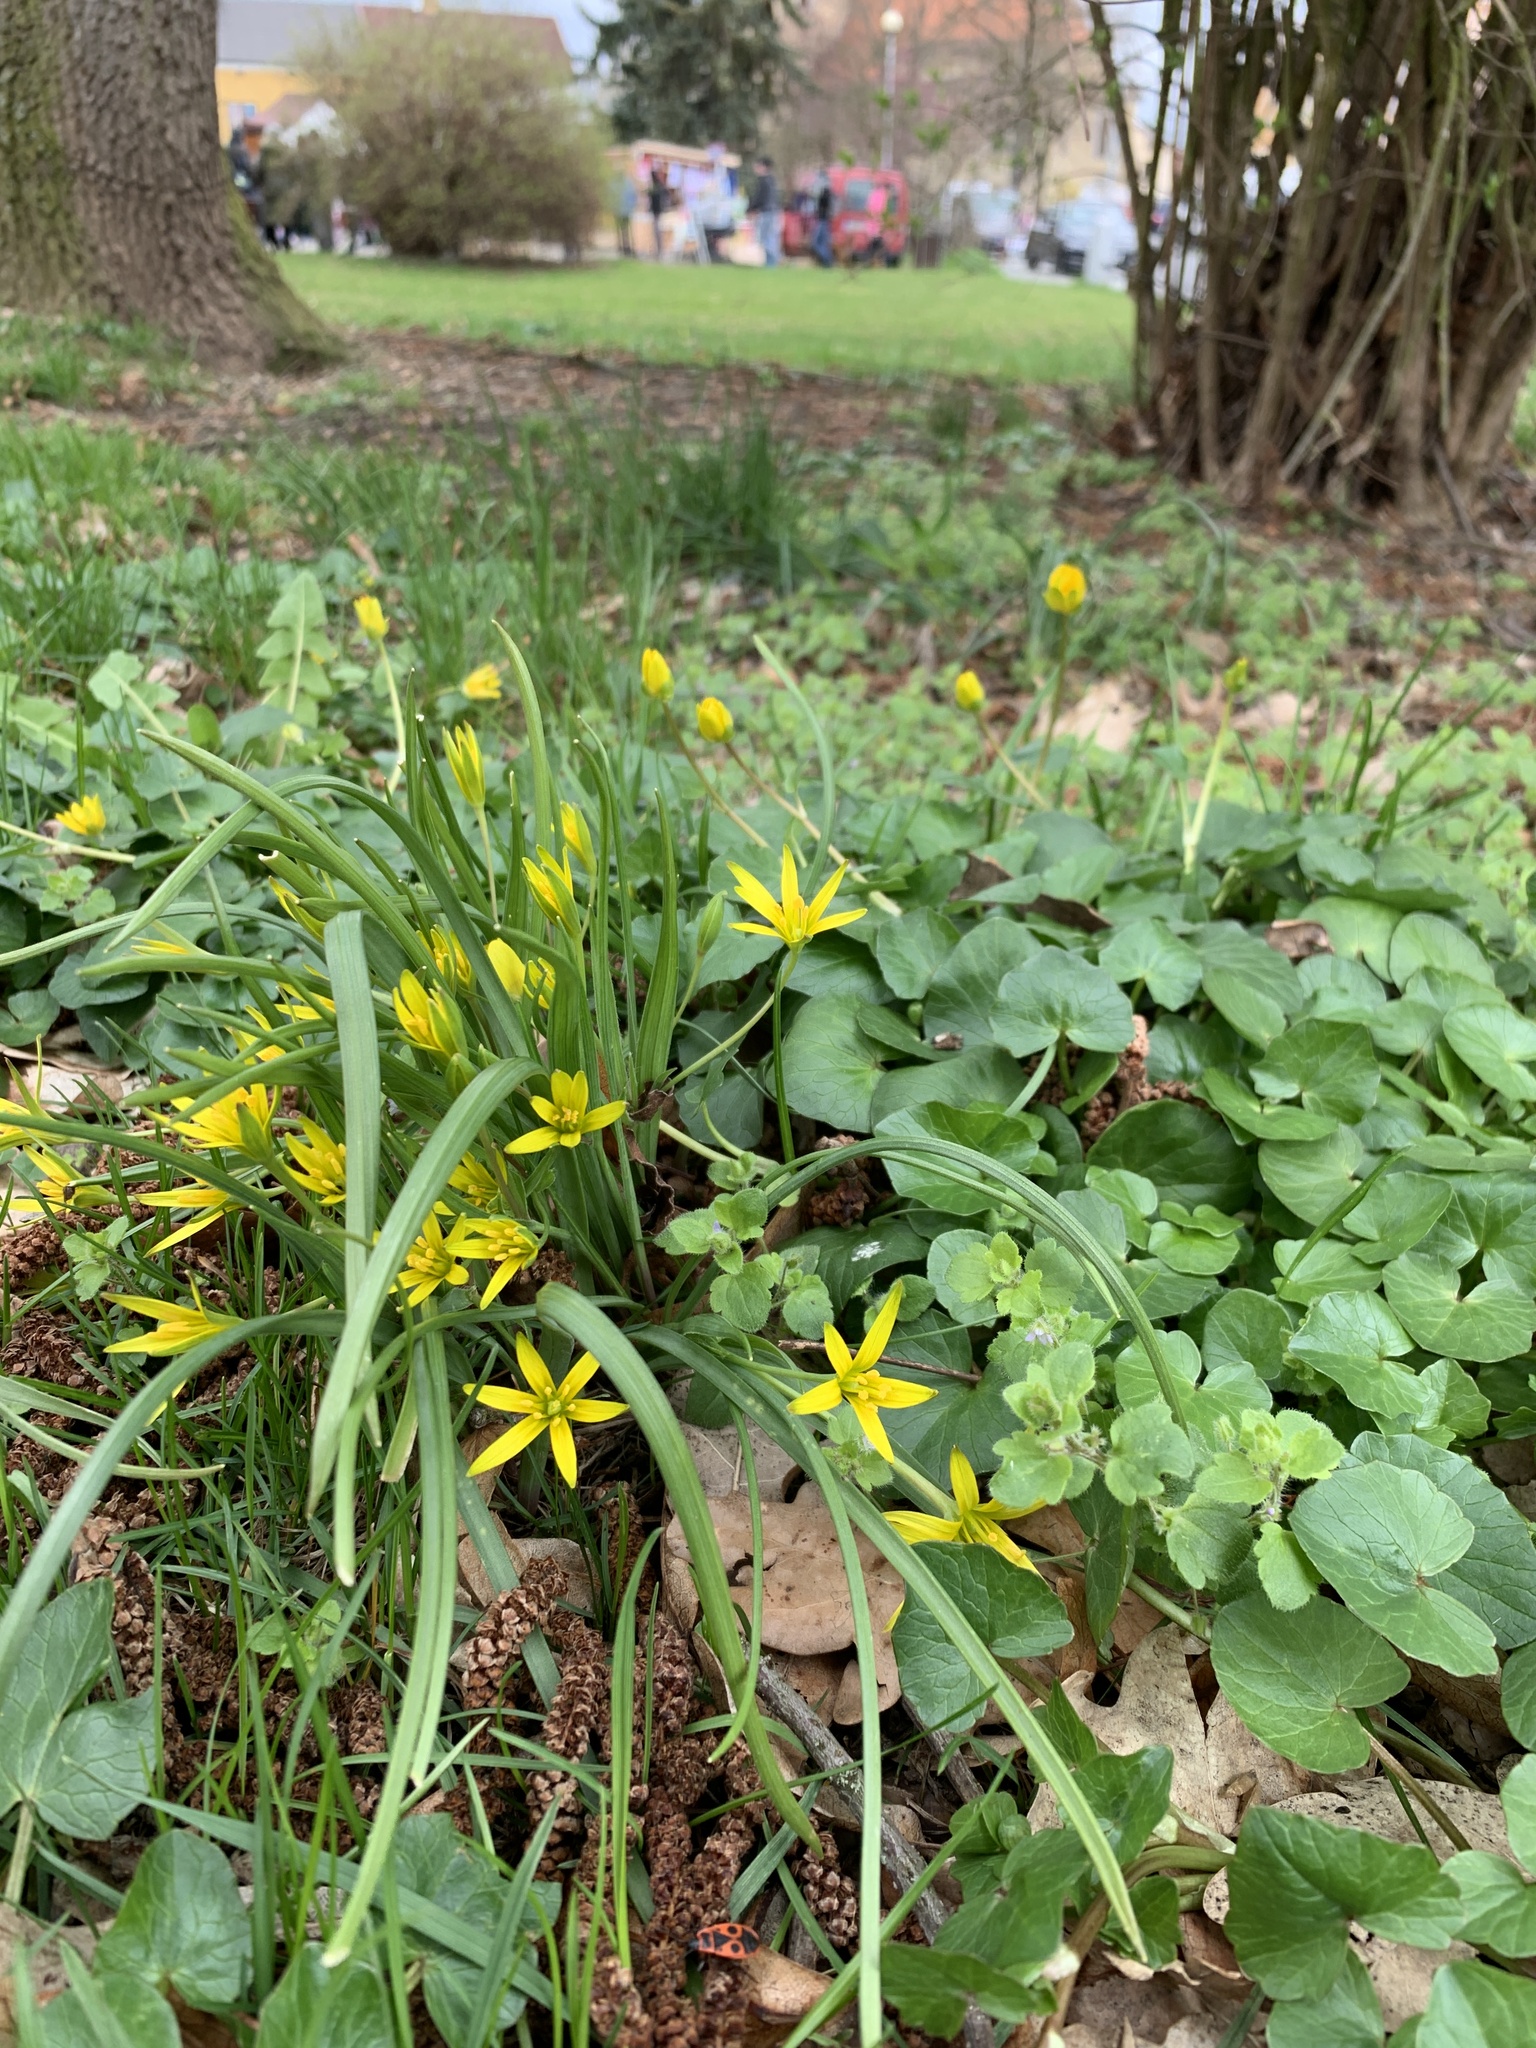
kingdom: Plantae
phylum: Tracheophyta
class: Liliopsida
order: Liliales
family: Liliaceae
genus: Gagea
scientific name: Gagea pratensis
